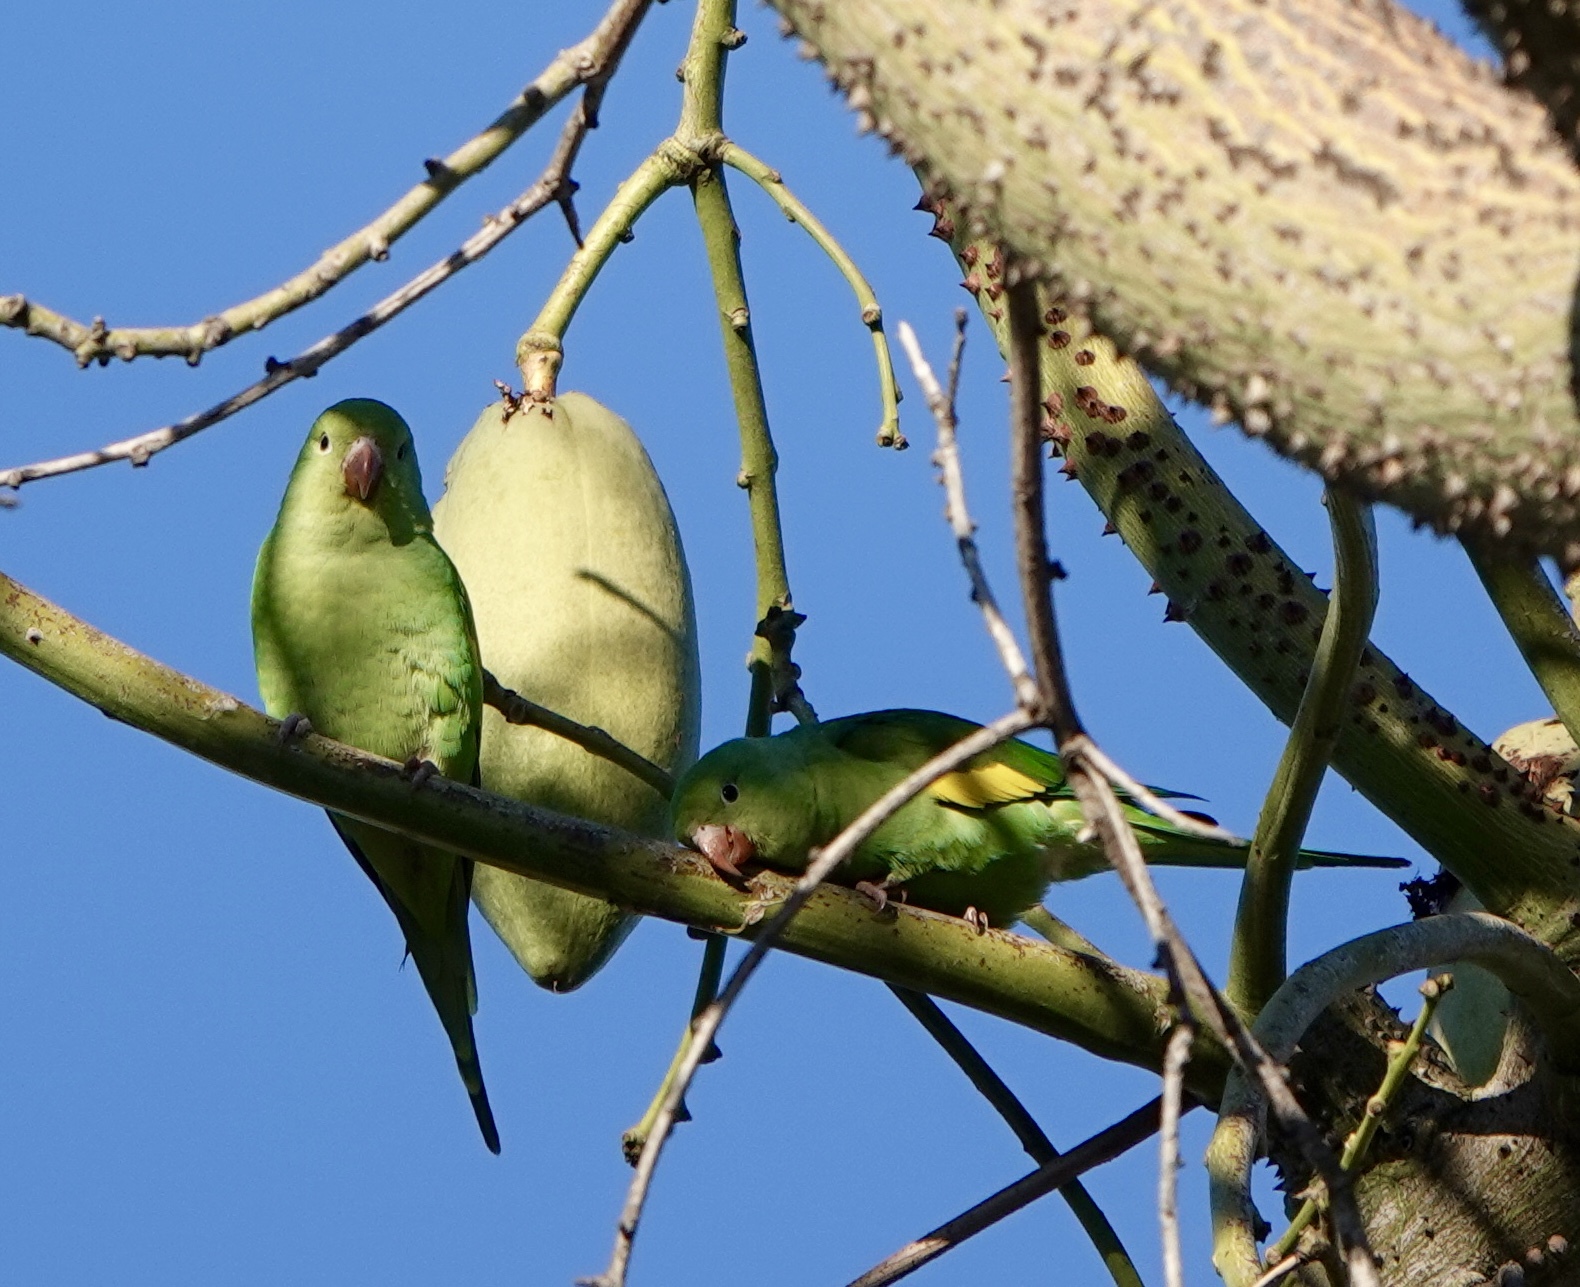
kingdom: Animalia
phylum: Chordata
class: Aves
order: Psittaciformes
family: Psittacidae
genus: Brotogeris
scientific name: Brotogeris chiriri
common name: Yellow-chevroned parakeet
